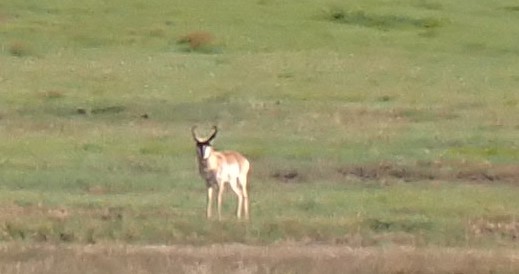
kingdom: Animalia
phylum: Chordata
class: Mammalia
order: Artiodactyla
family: Antilocapridae
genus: Antilocapra
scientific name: Antilocapra americana
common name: Pronghorn
